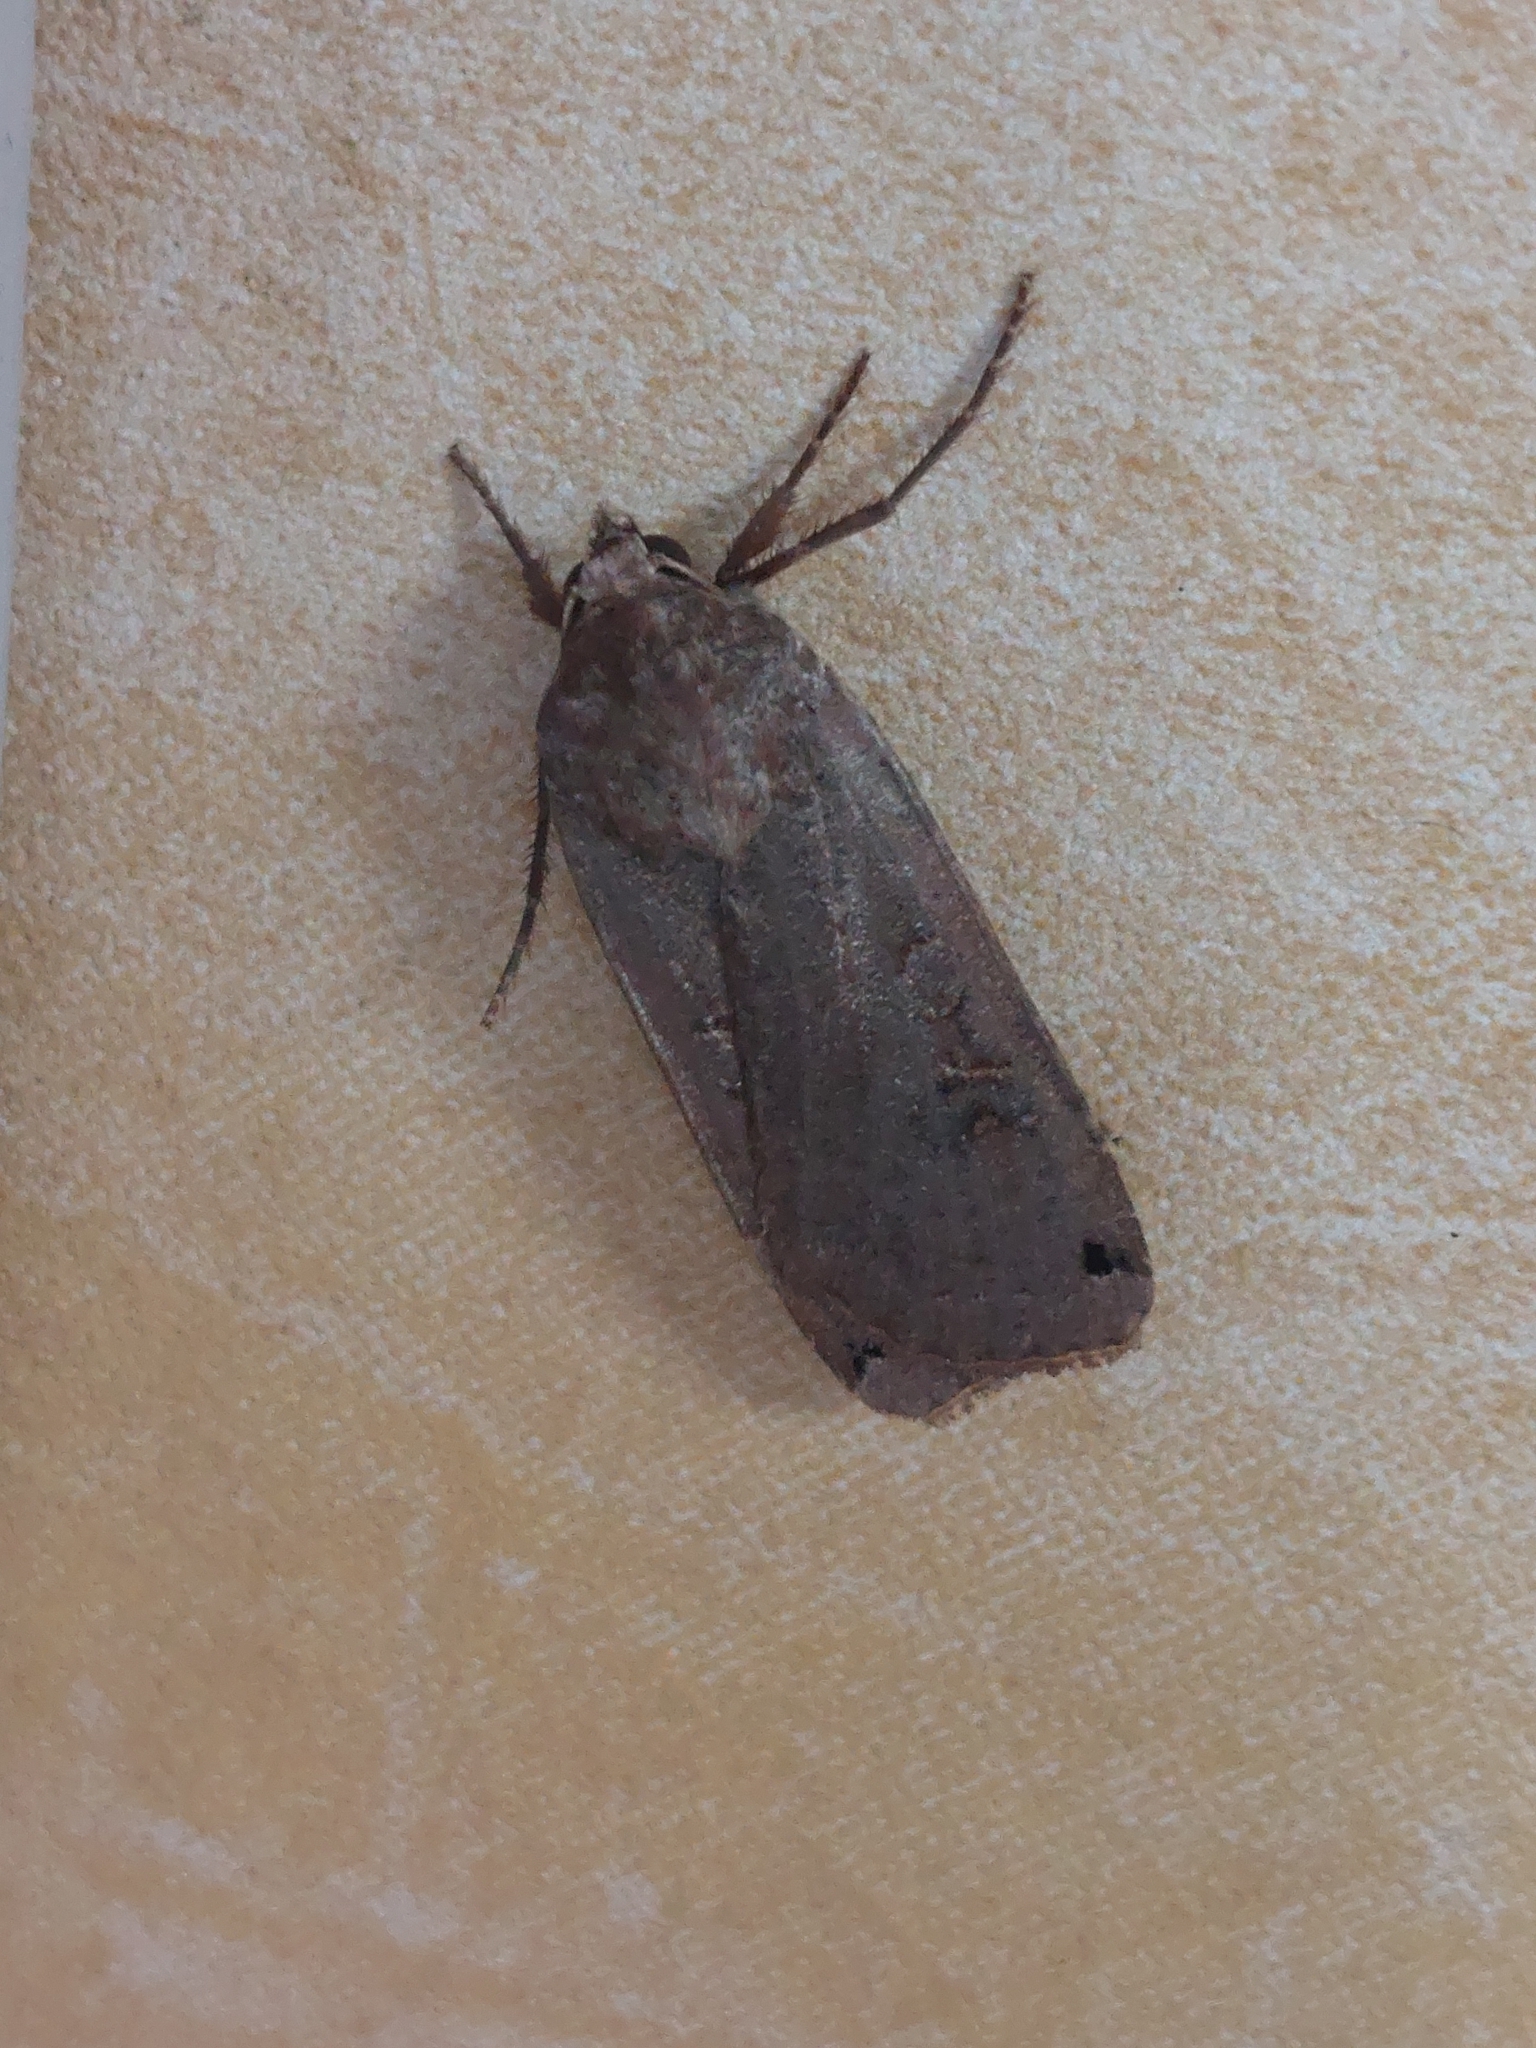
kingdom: Animalia
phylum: Arthropoda
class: Insecta
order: Lepidoptera
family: Noctuidae
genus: Noctua
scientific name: Noctua pronuba
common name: Large yellow underwing
